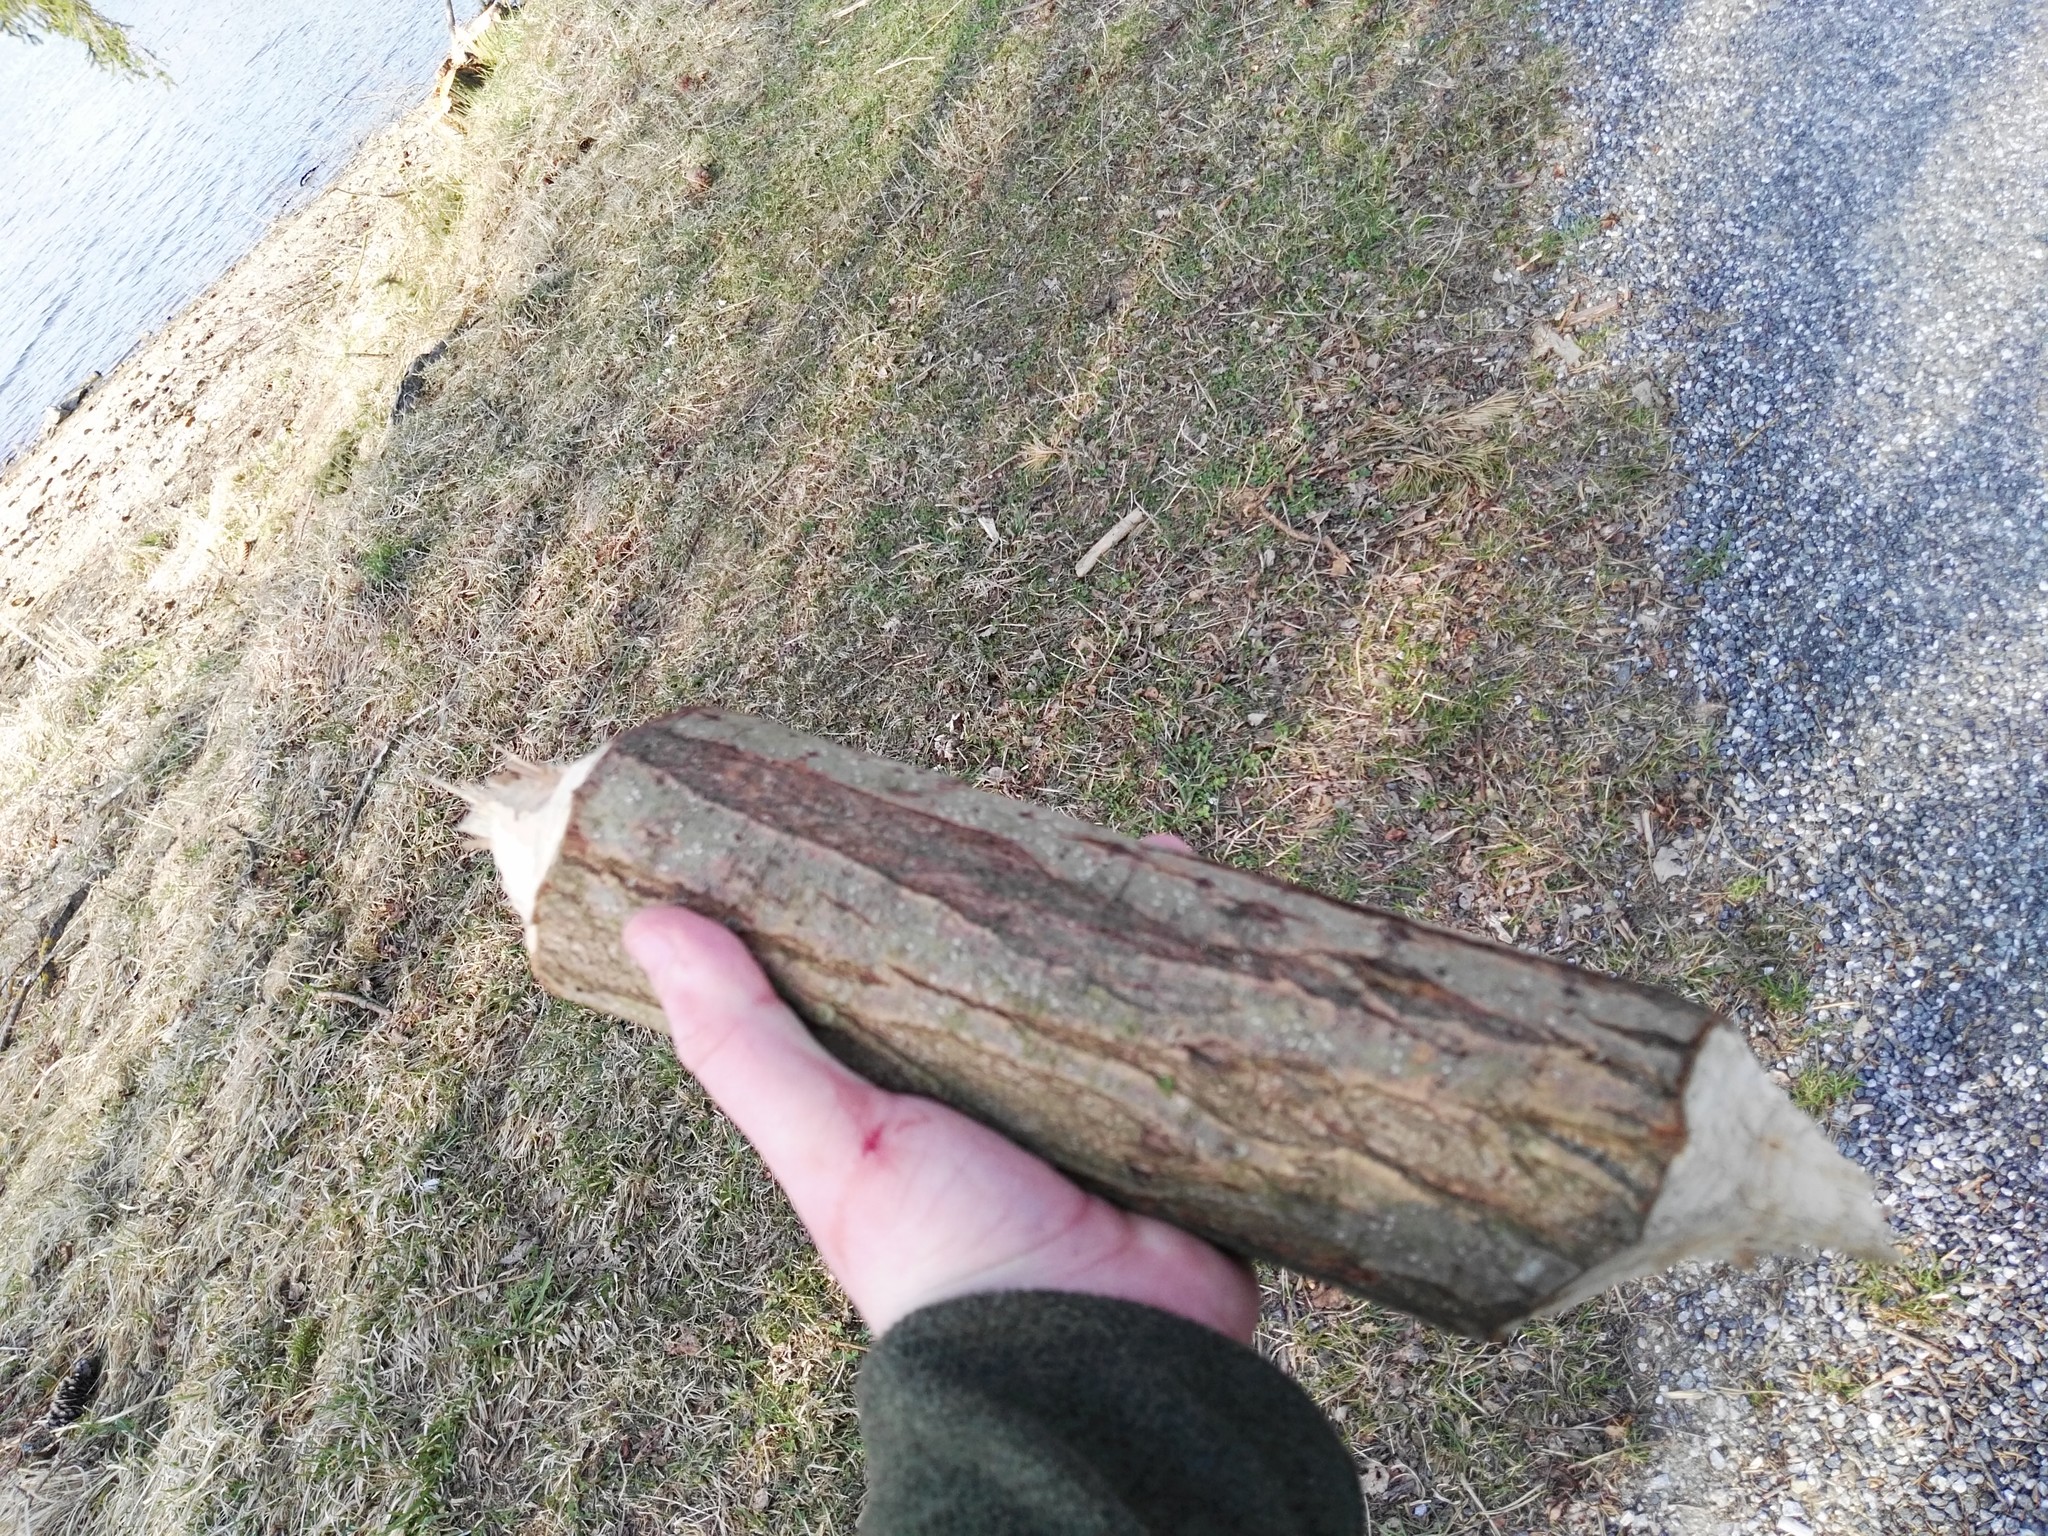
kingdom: Animalia
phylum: Chordata
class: Mammalia
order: Rodentia
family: Castoridae
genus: Castor
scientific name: Castor fiber
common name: Eurasian beaver
